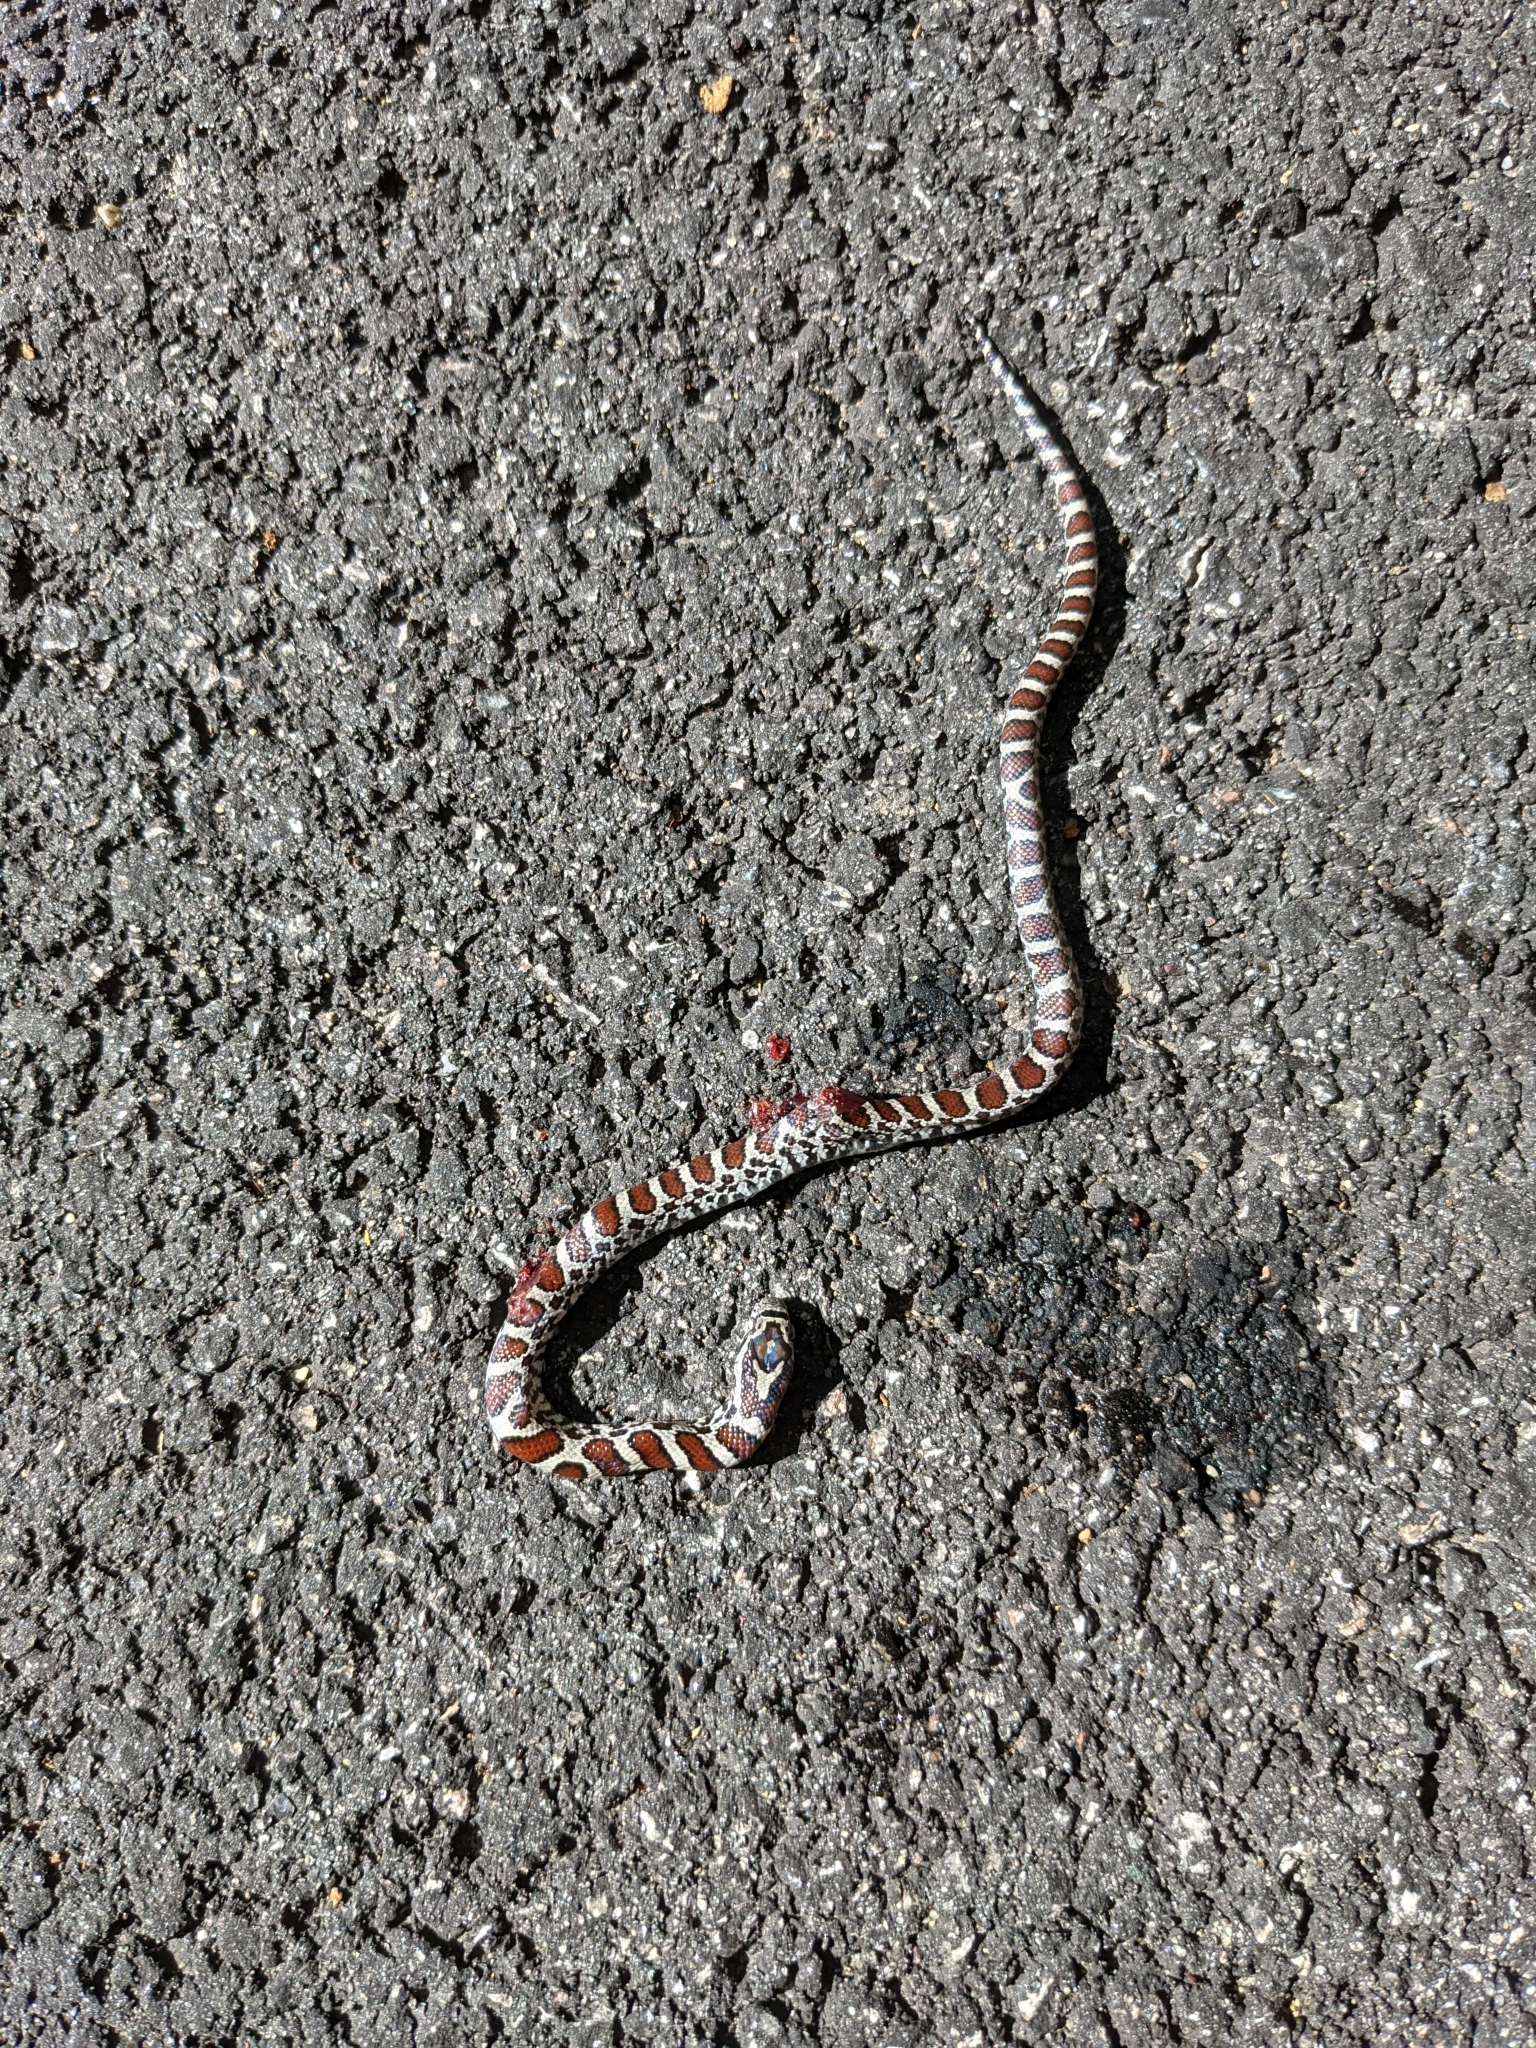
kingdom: Animalia
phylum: Chordata
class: Squamata
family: Colubridae
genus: Lampropeltis
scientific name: Lampropeltis triangulum
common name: Eastern milksnake
